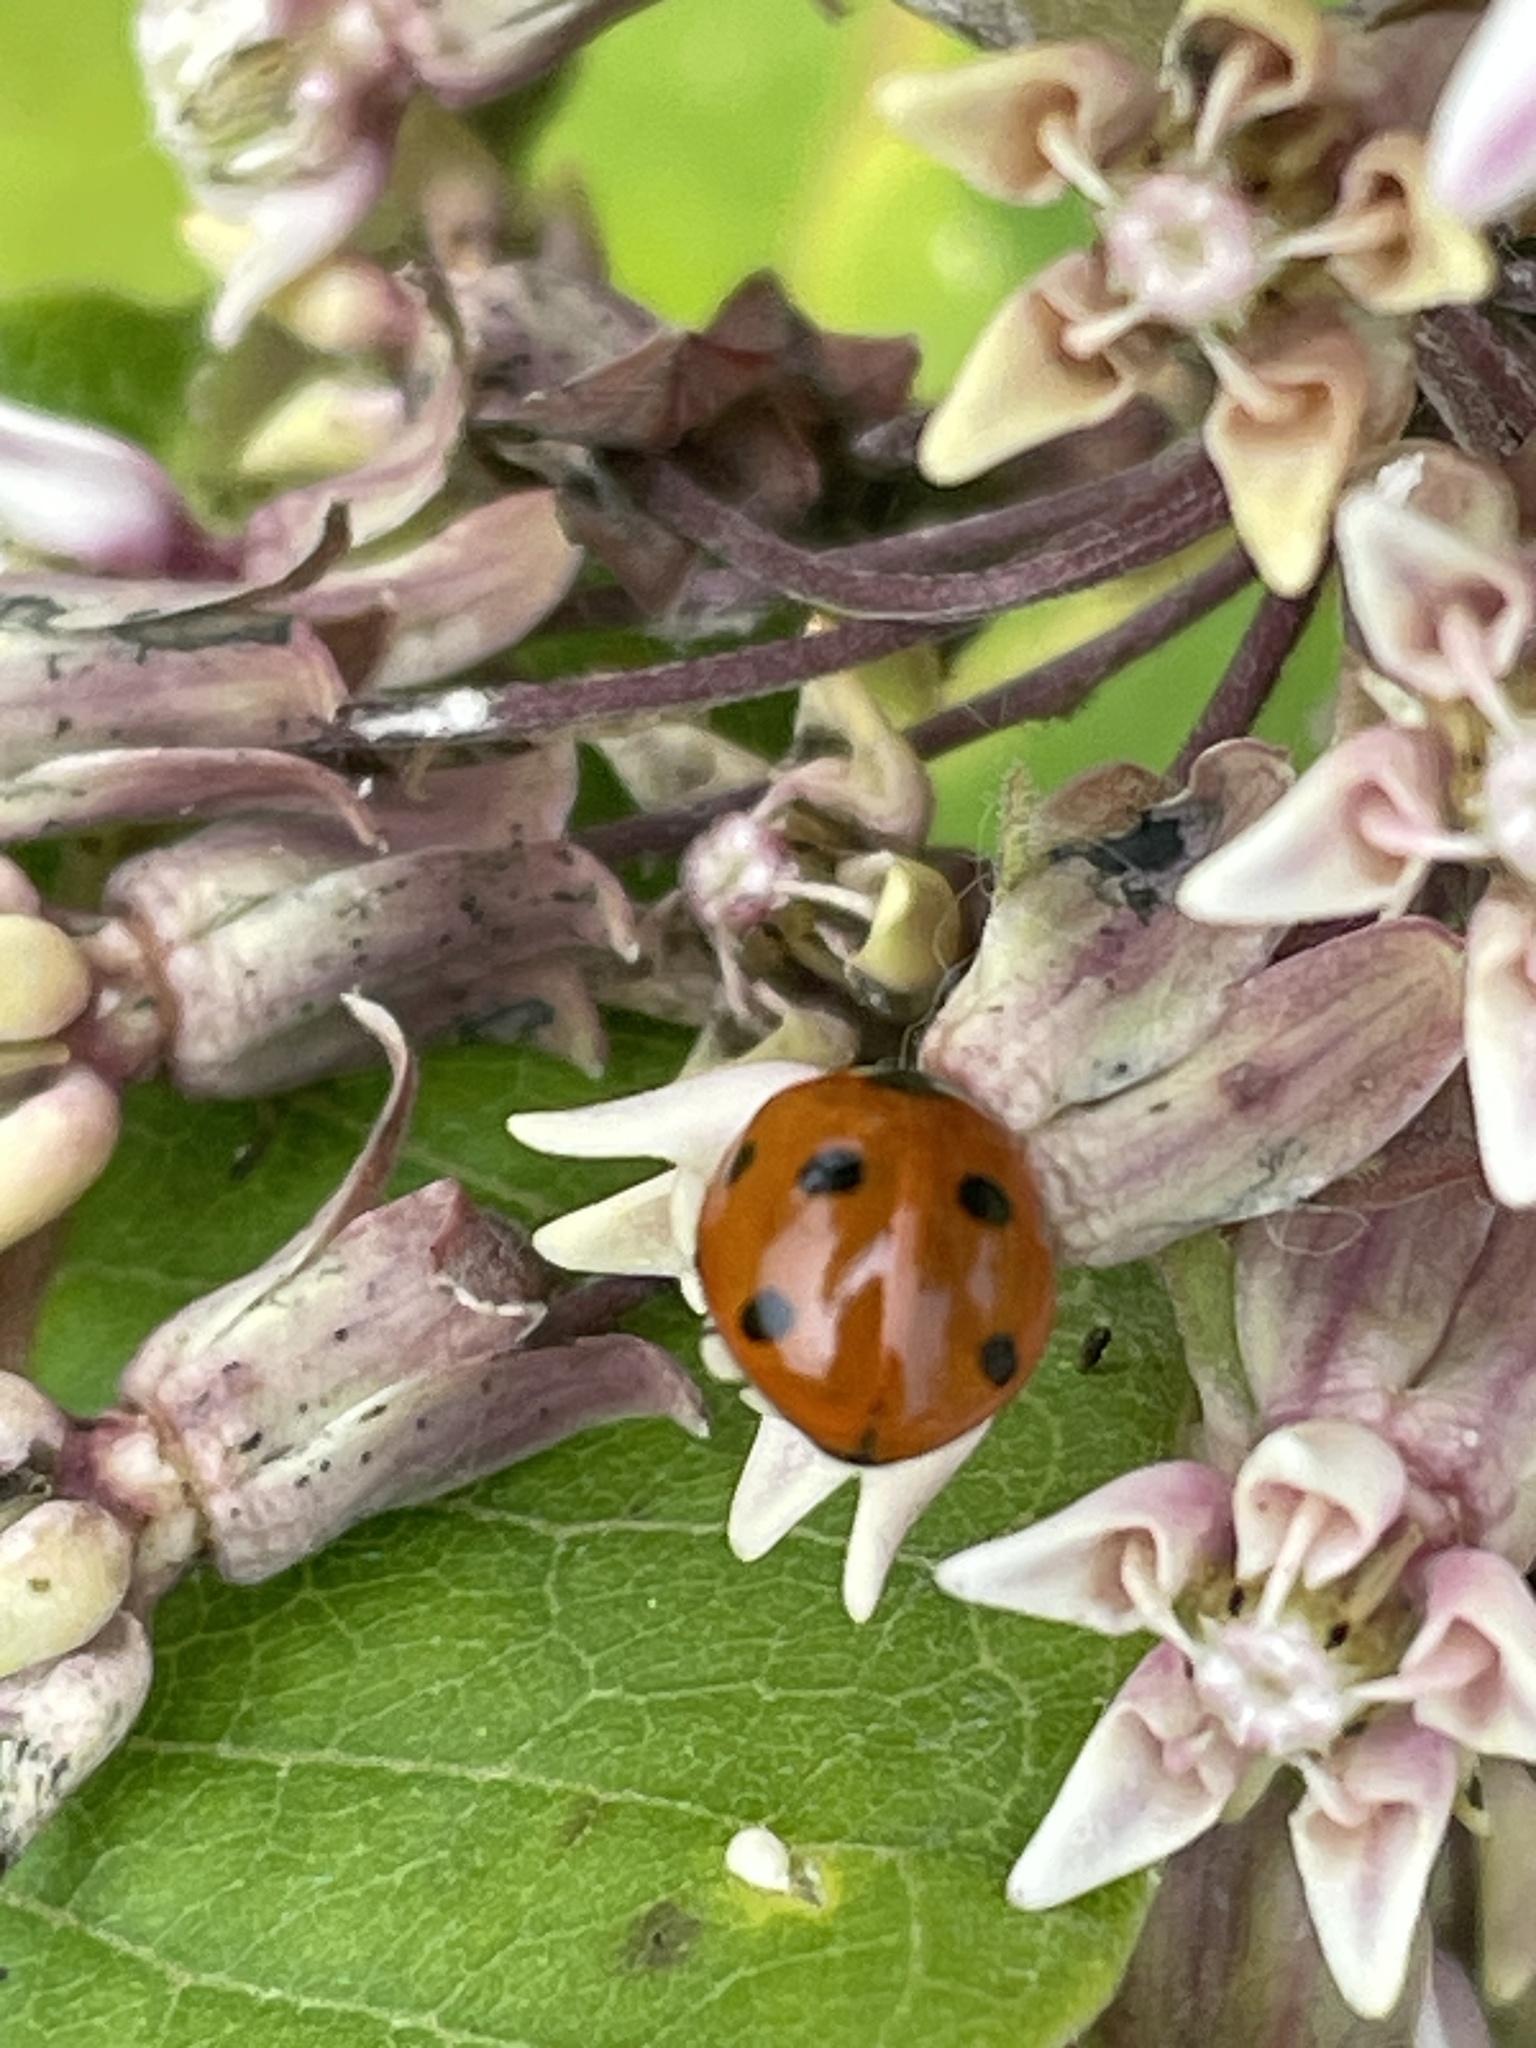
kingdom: Animalia
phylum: Arthropoda
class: Insecta
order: Coleoptera
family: Coccinellidae
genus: Coccinella
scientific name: Coccinella septempunctata
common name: Sevenspotted lady beetle
